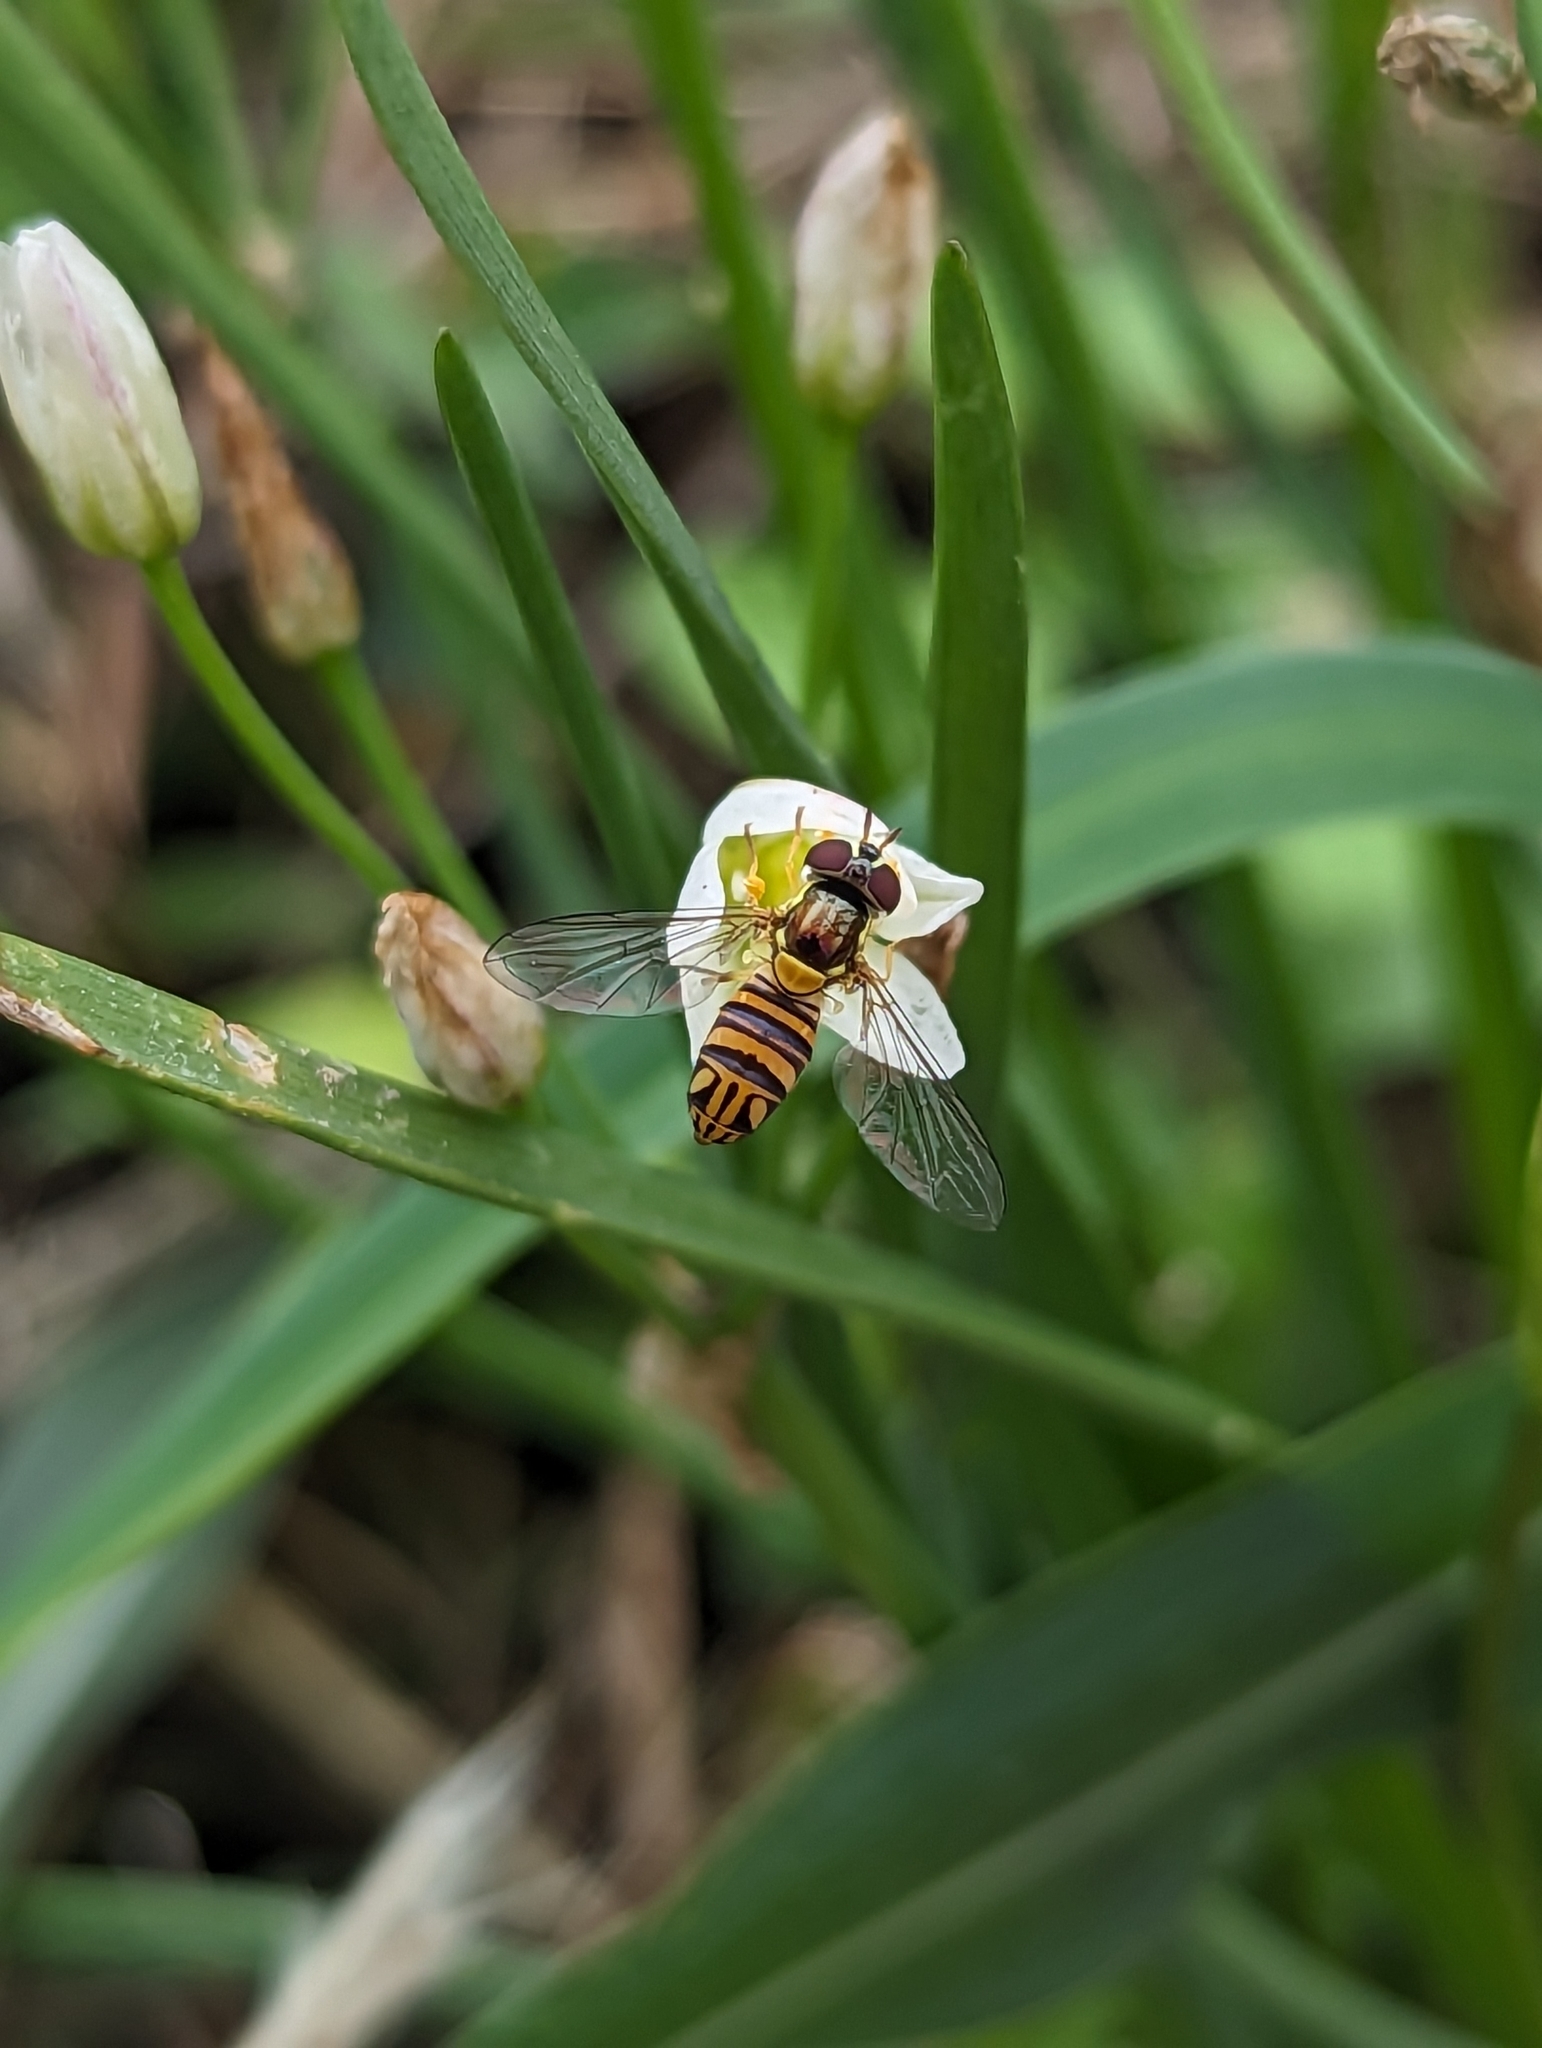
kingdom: Animalia
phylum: Arthropoda
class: Insecta
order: Diptera
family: Syrphidae
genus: Allograpta
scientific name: Allograpta obliqua
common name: Common oblique syrphid
